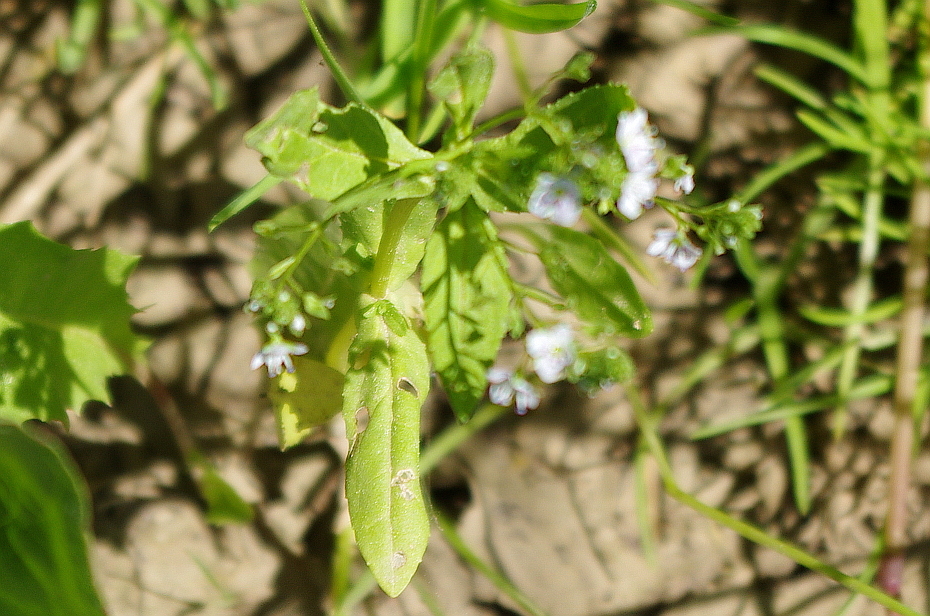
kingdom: Plantae
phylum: Tracheophyta
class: Magnoliopsida
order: Lamiales
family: Plantaginaceae
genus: Veronica
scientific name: Veronica anagallis-aquatica
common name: Water speedwell
